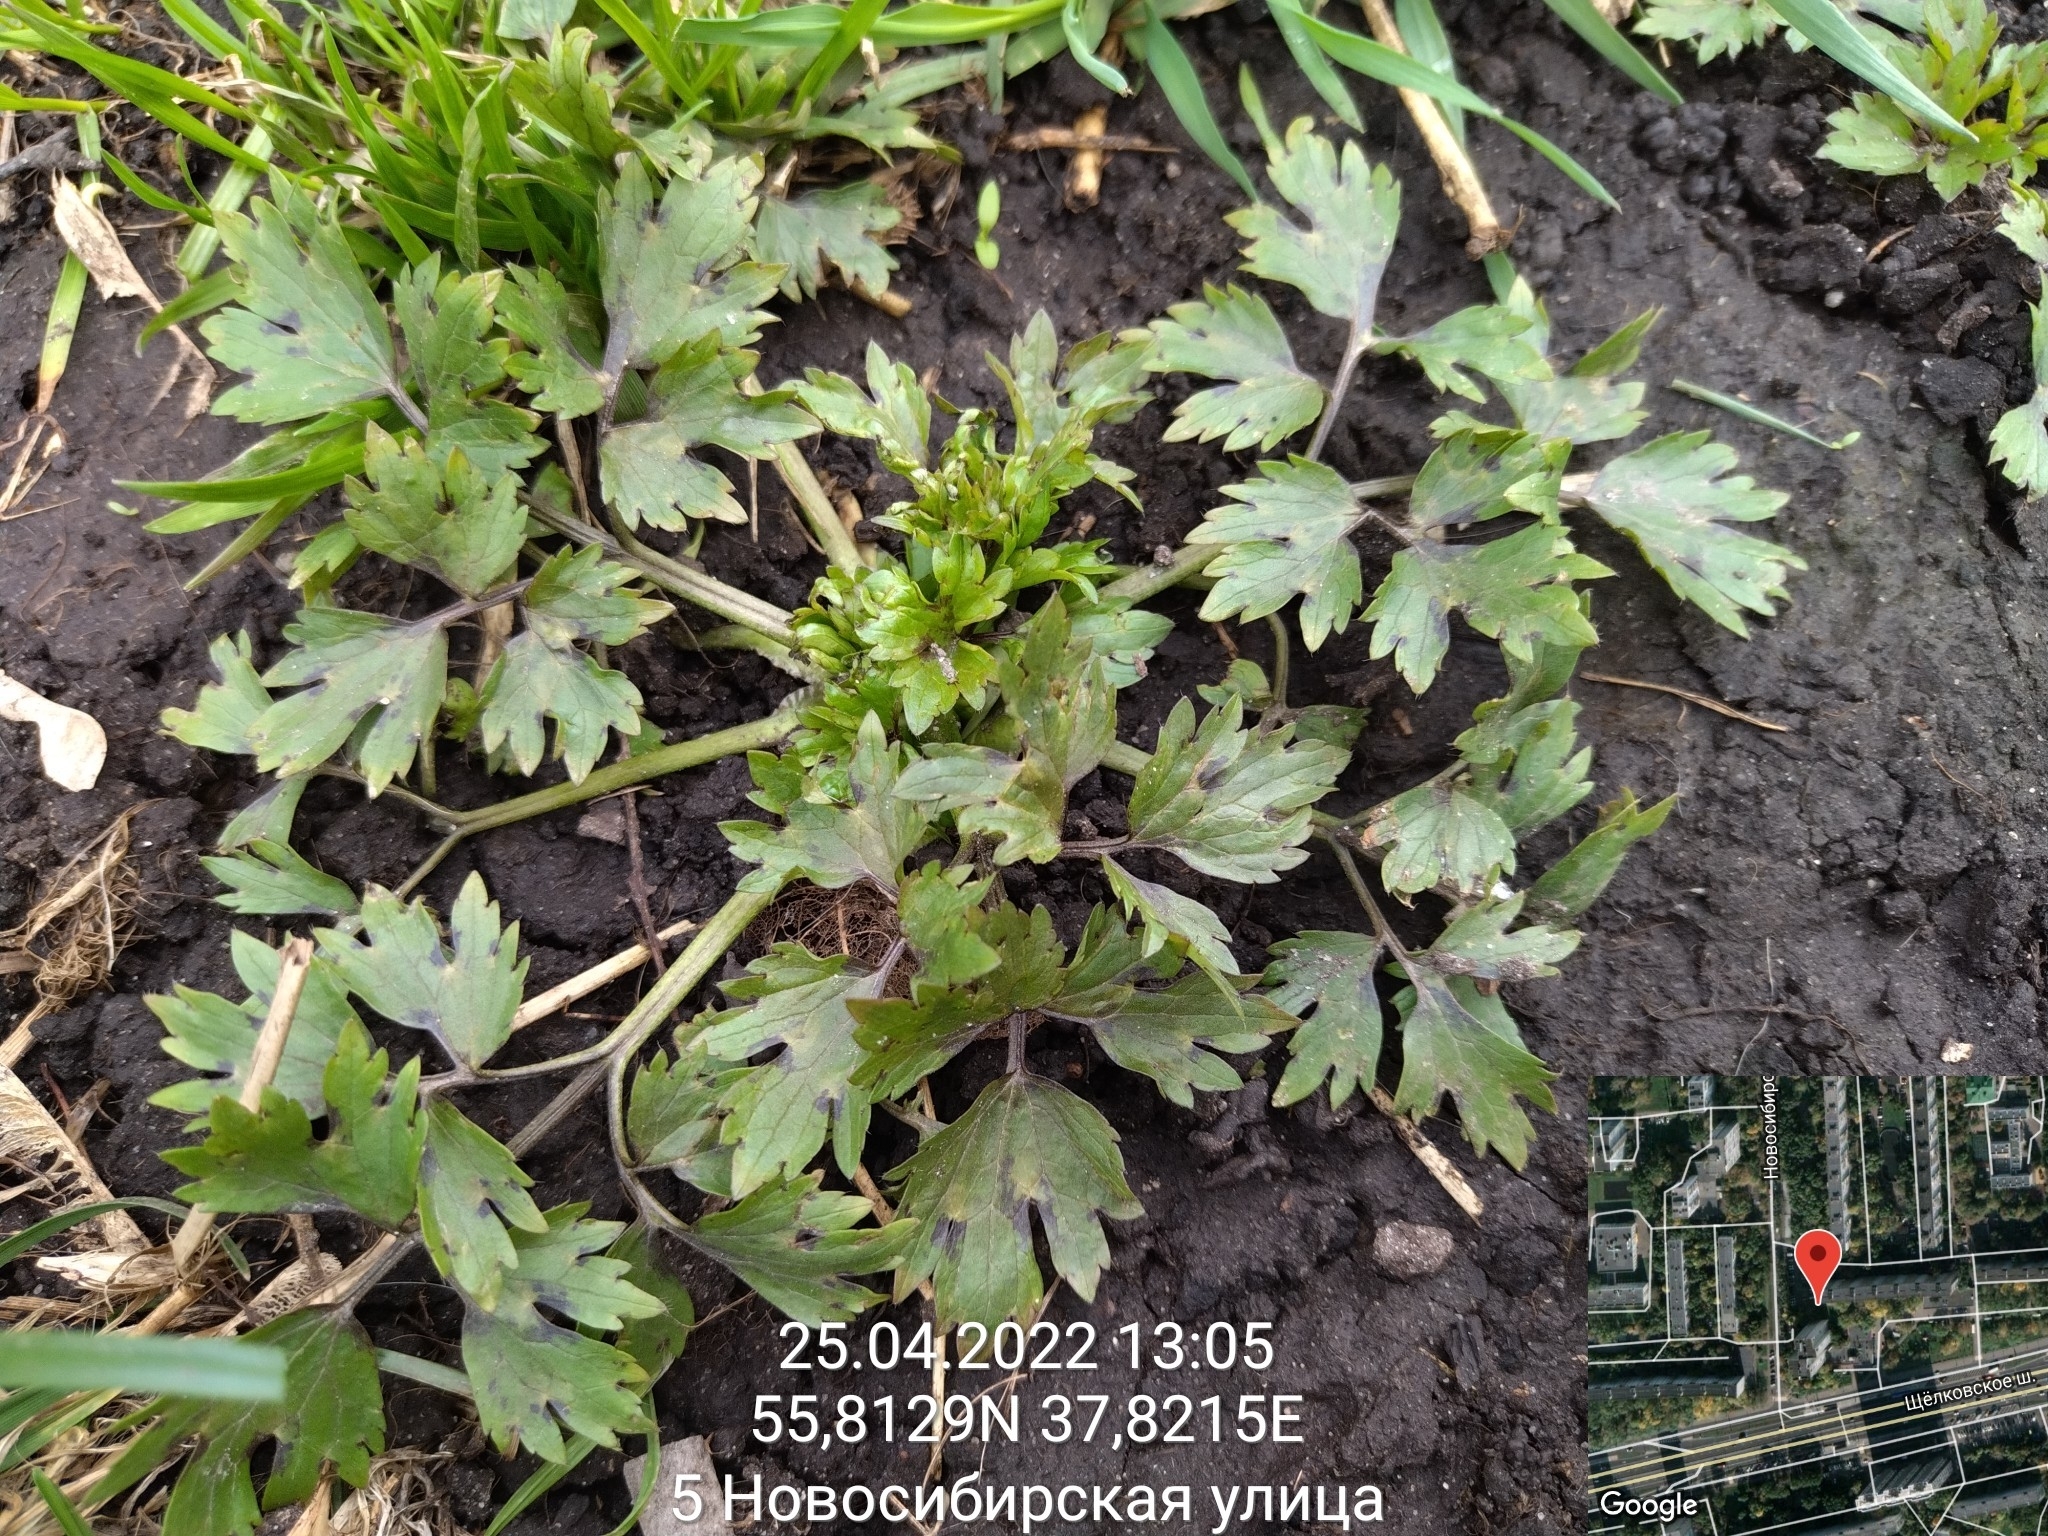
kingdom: Plantae
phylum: Tracheophyta
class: Magnoliopsida
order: Ranunculales
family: Ranunculaceae
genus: Ranunculus
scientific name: Ranunculus repens
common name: Creeping buttercup
